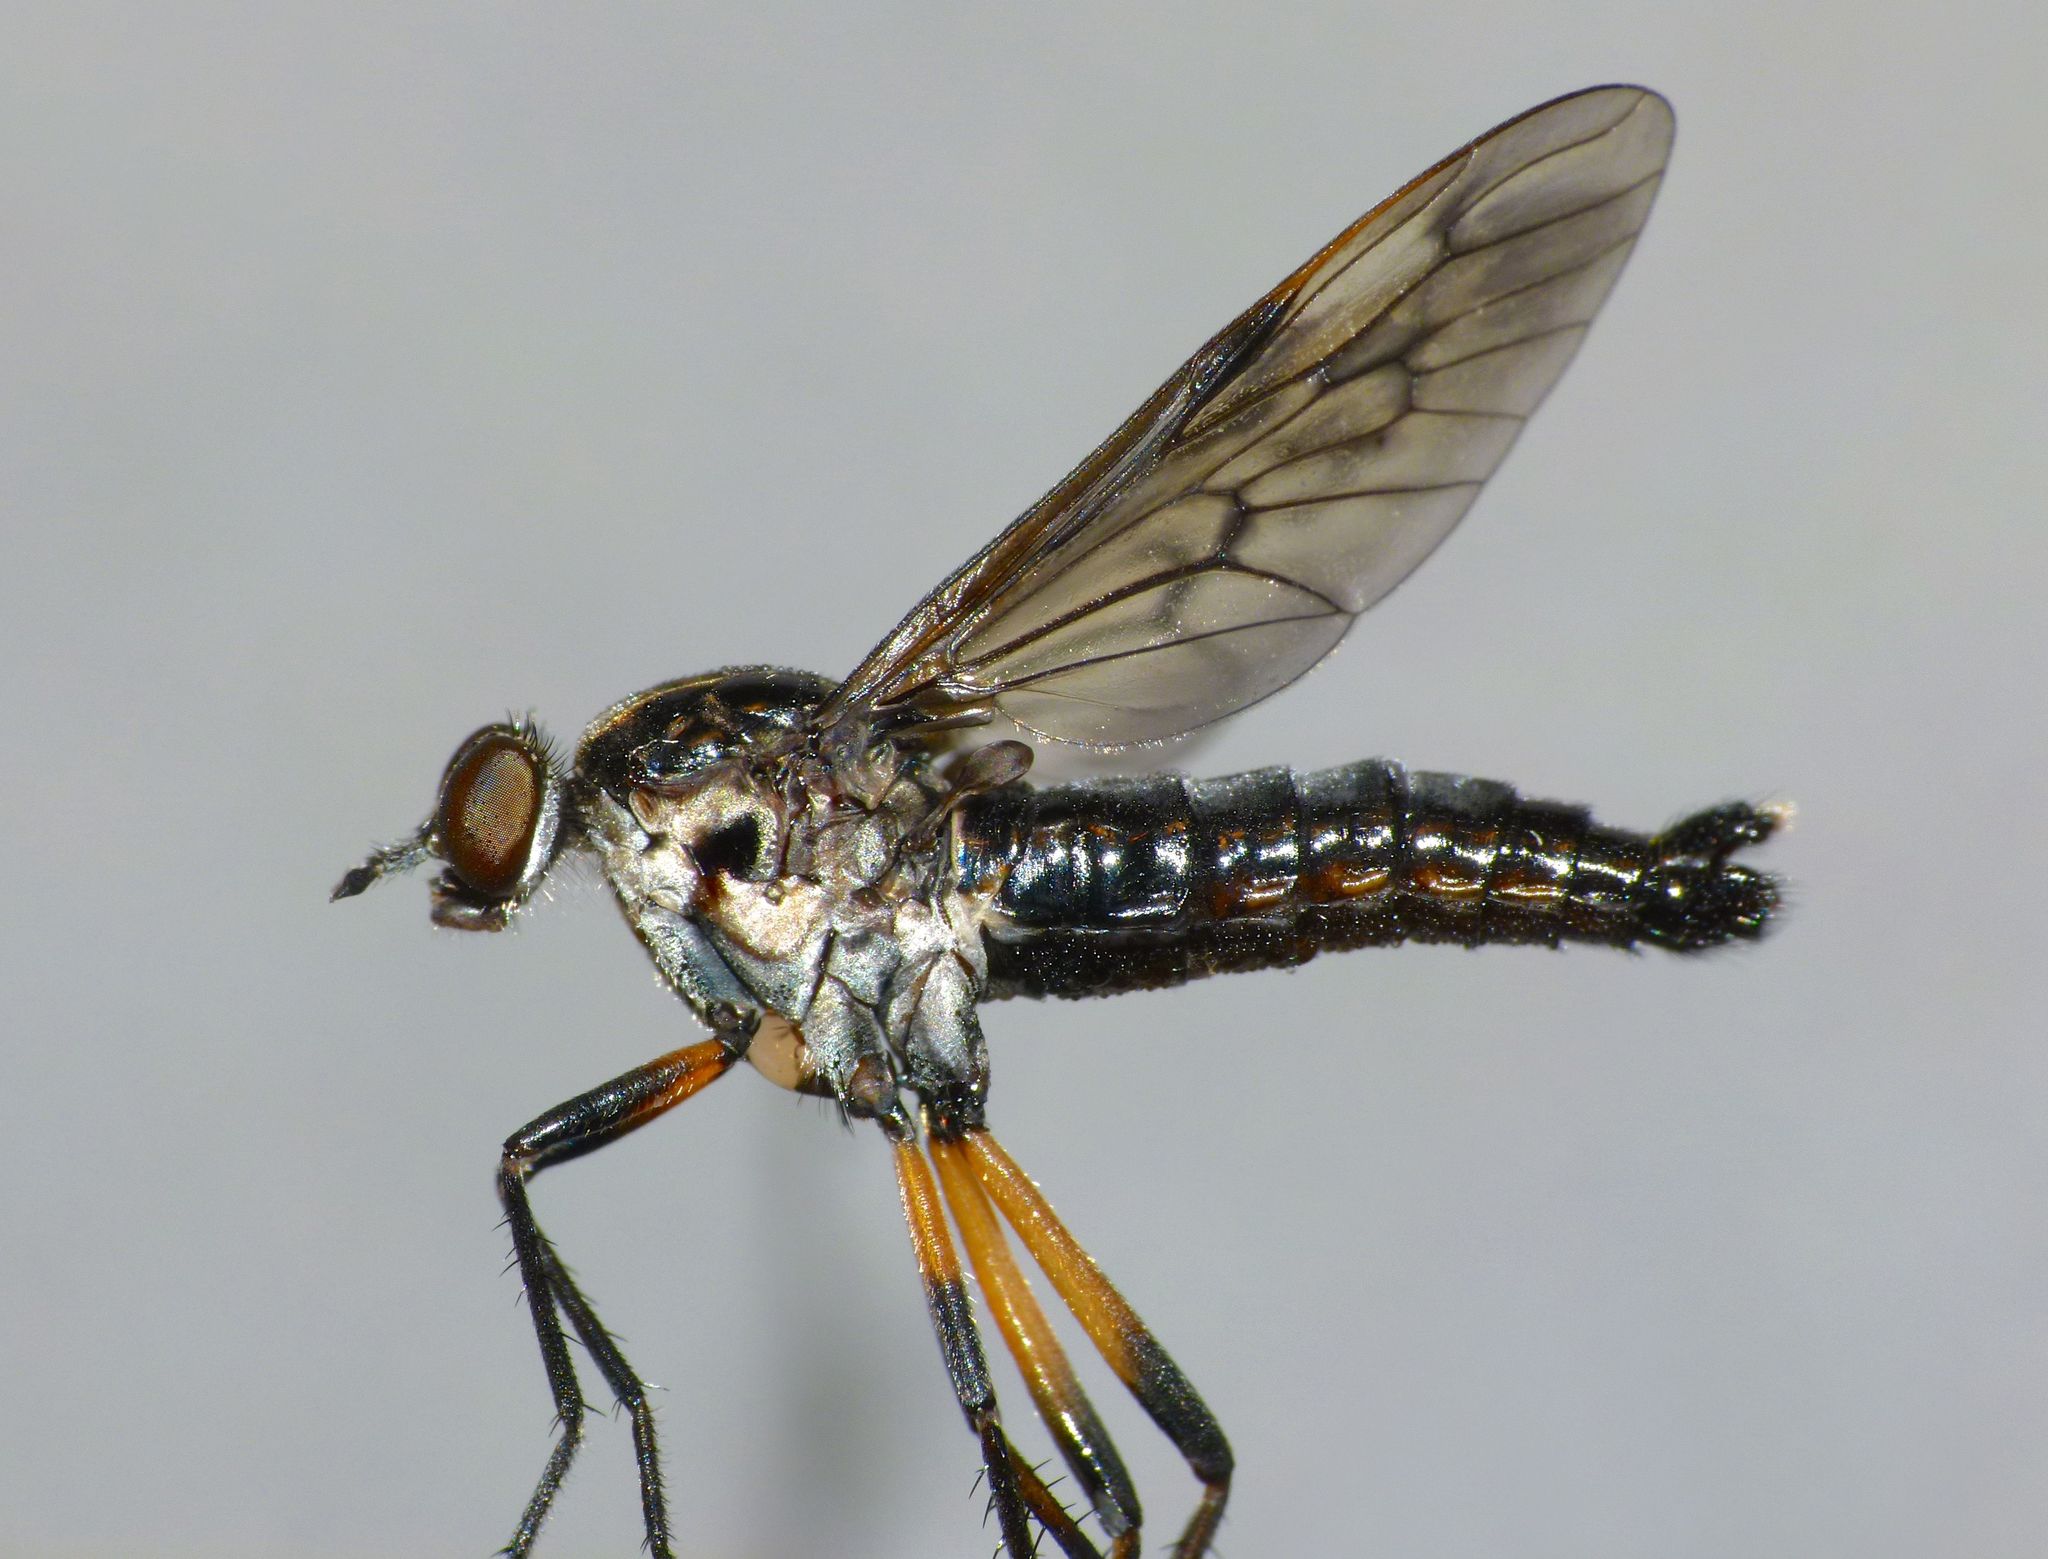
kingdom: Animalia
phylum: Arthropoda
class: Insecta
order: Diptera
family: Therevidae
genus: Anabarhynchus
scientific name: Anabarhynchus micans
